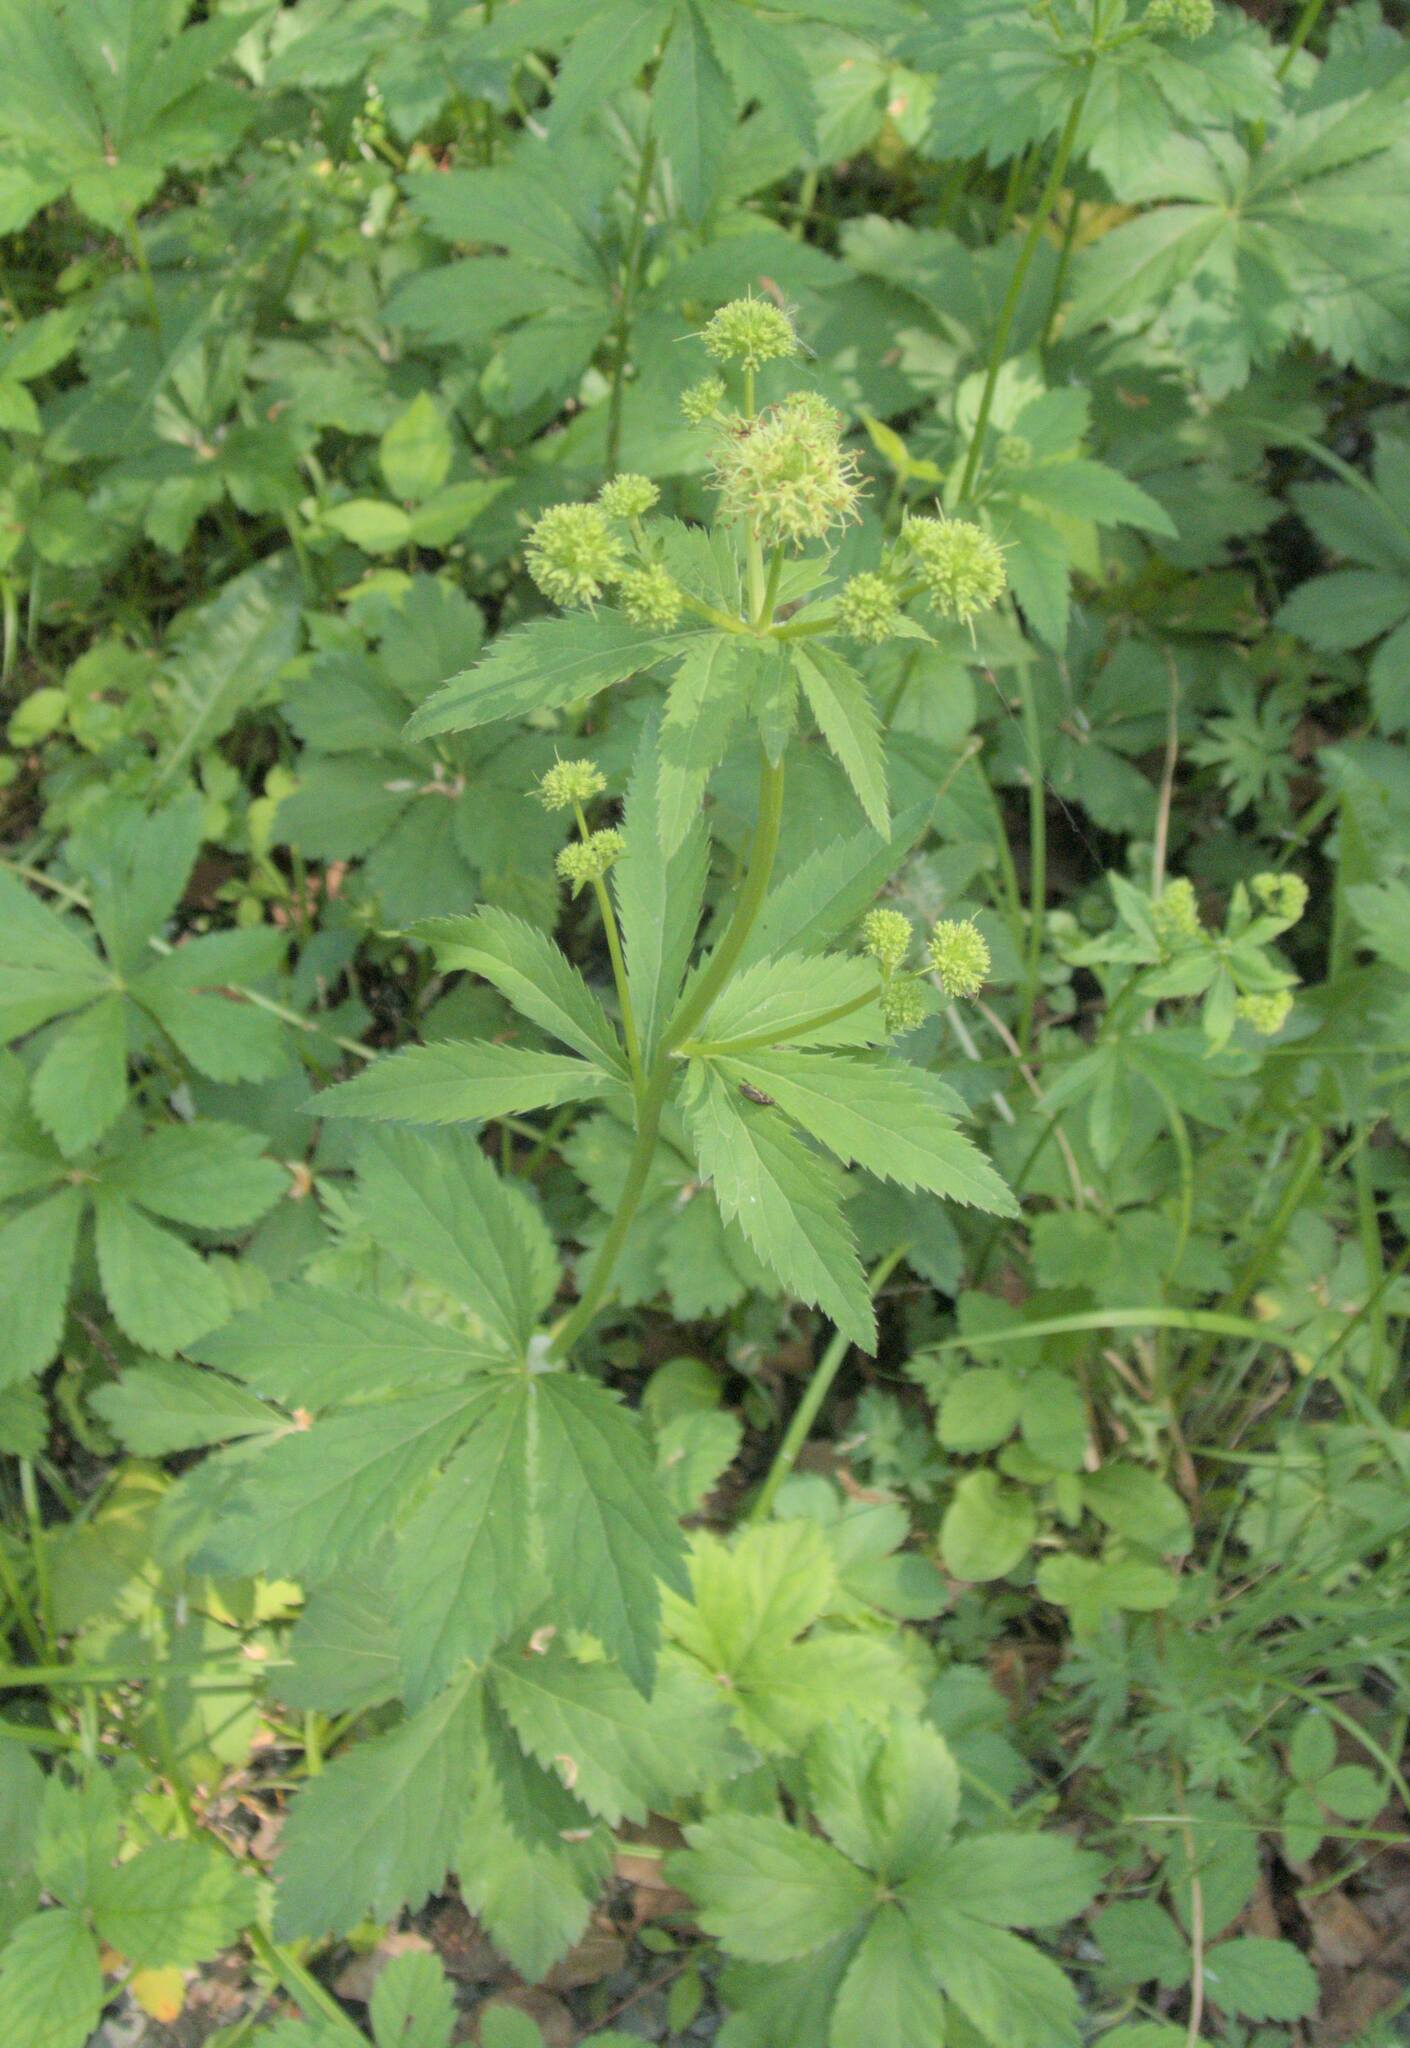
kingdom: Plantae
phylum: Tracheophyta
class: Magnoliopsida
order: Apiales
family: Apiaceae
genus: Sanicula
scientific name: Sanicula marilandica
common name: Black snakeroot
